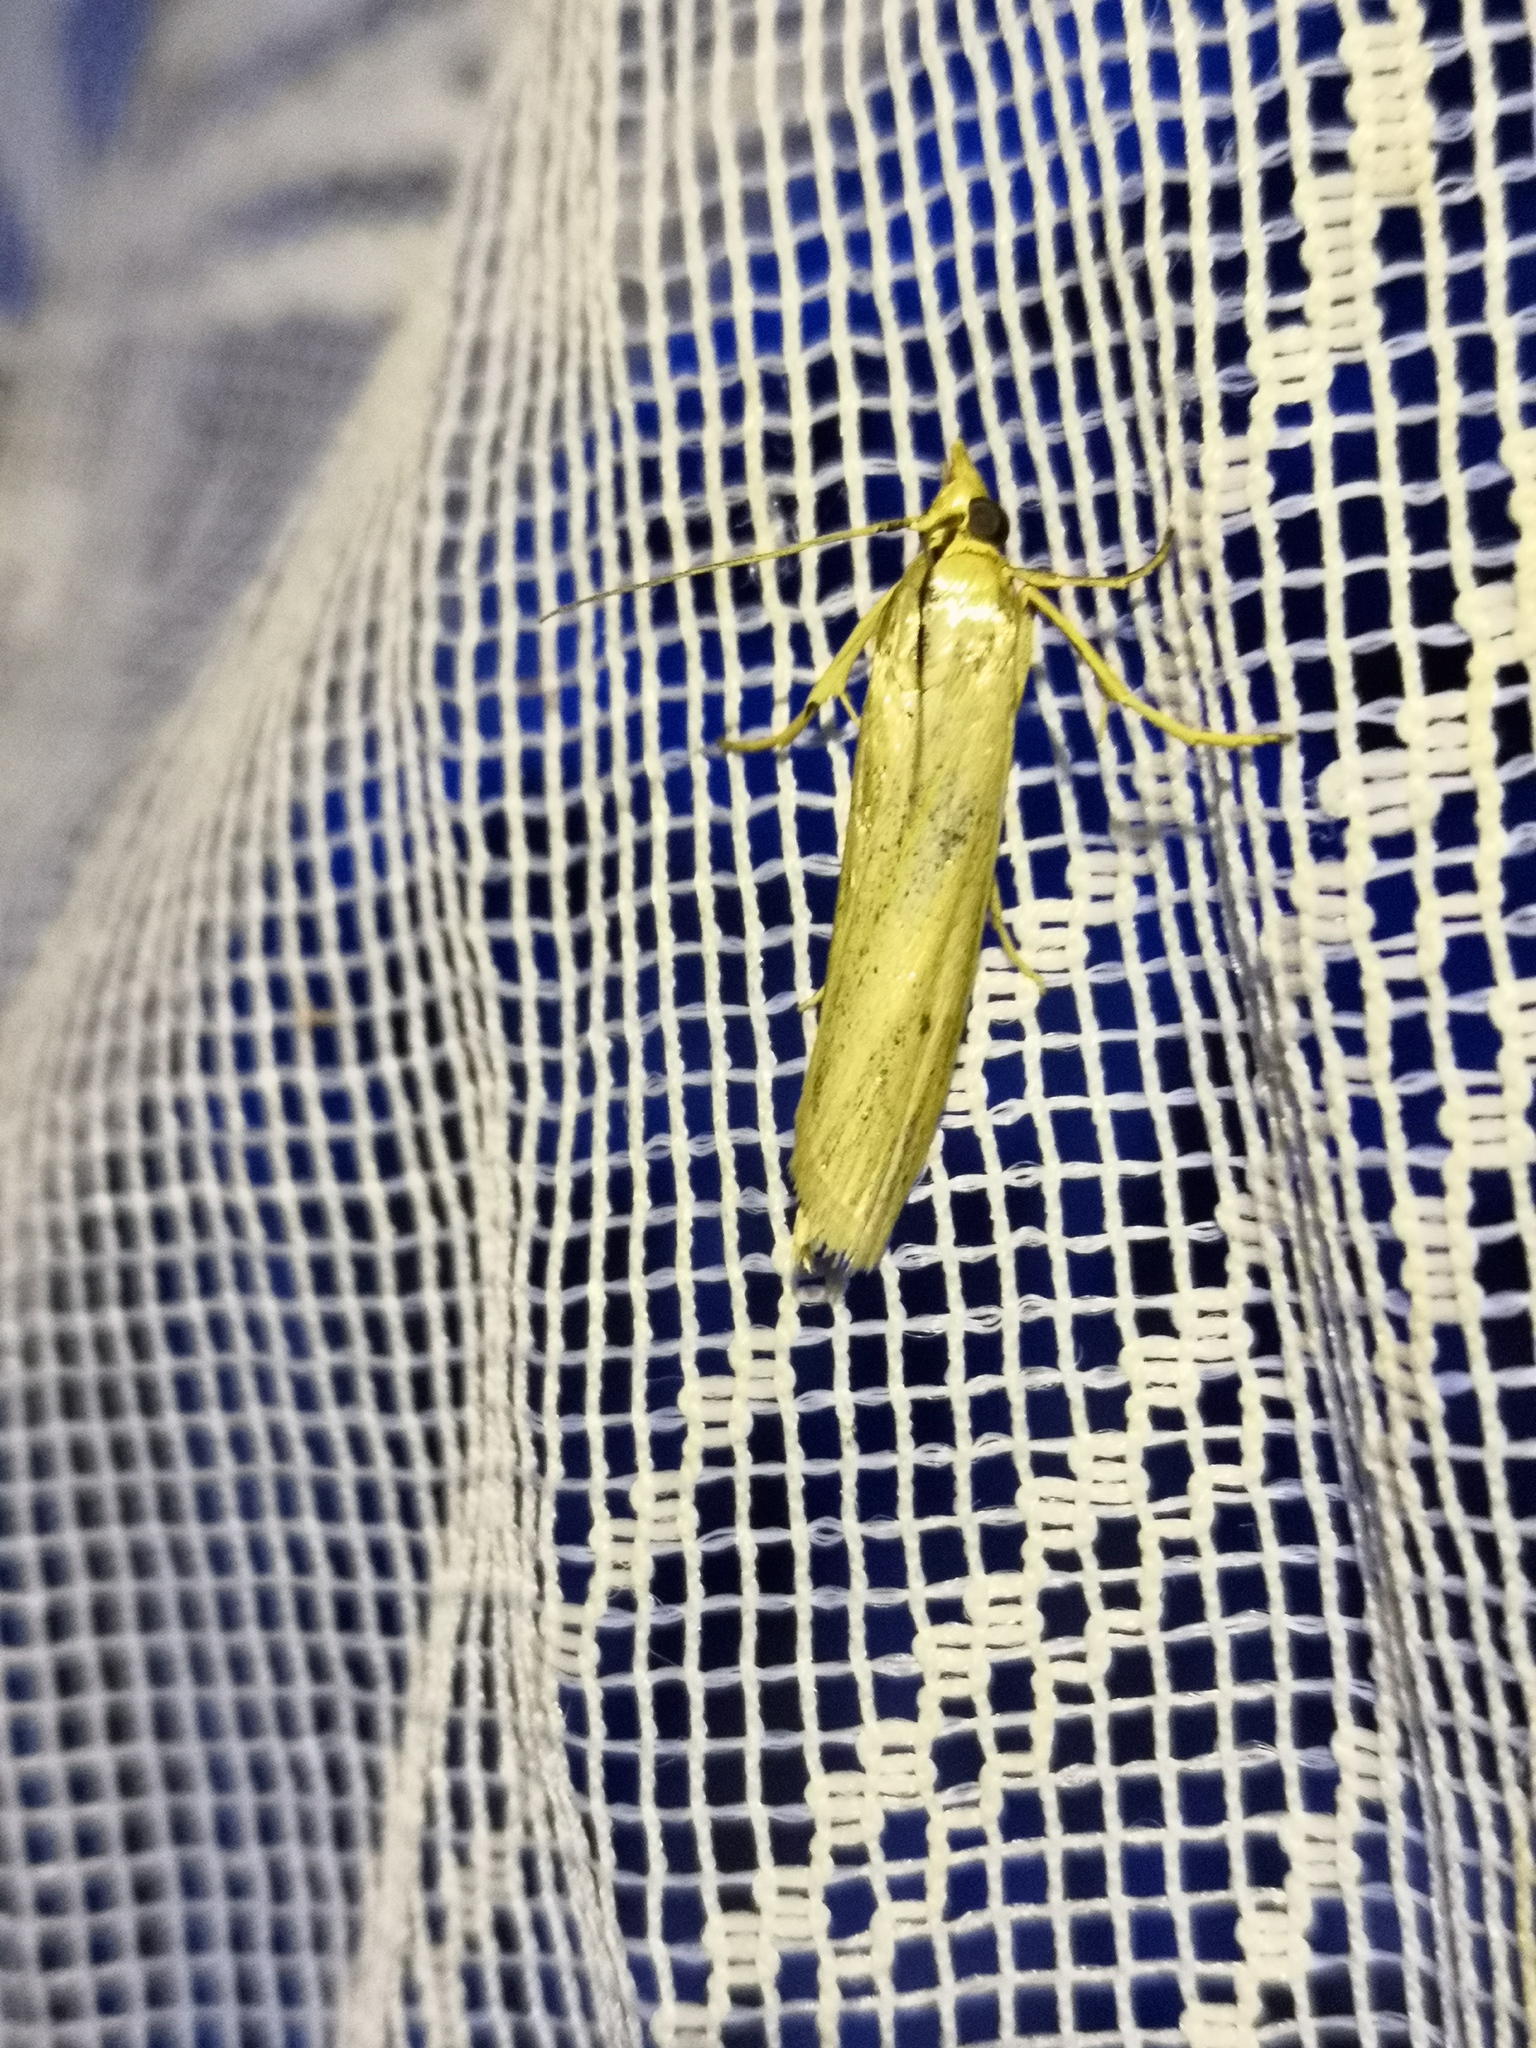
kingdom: Animalia
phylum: Arthropoda
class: Insecta
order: Lepidoptera
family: Pyralidae
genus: Selagia
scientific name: Selagia argyrella
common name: Silvery knot-horn
